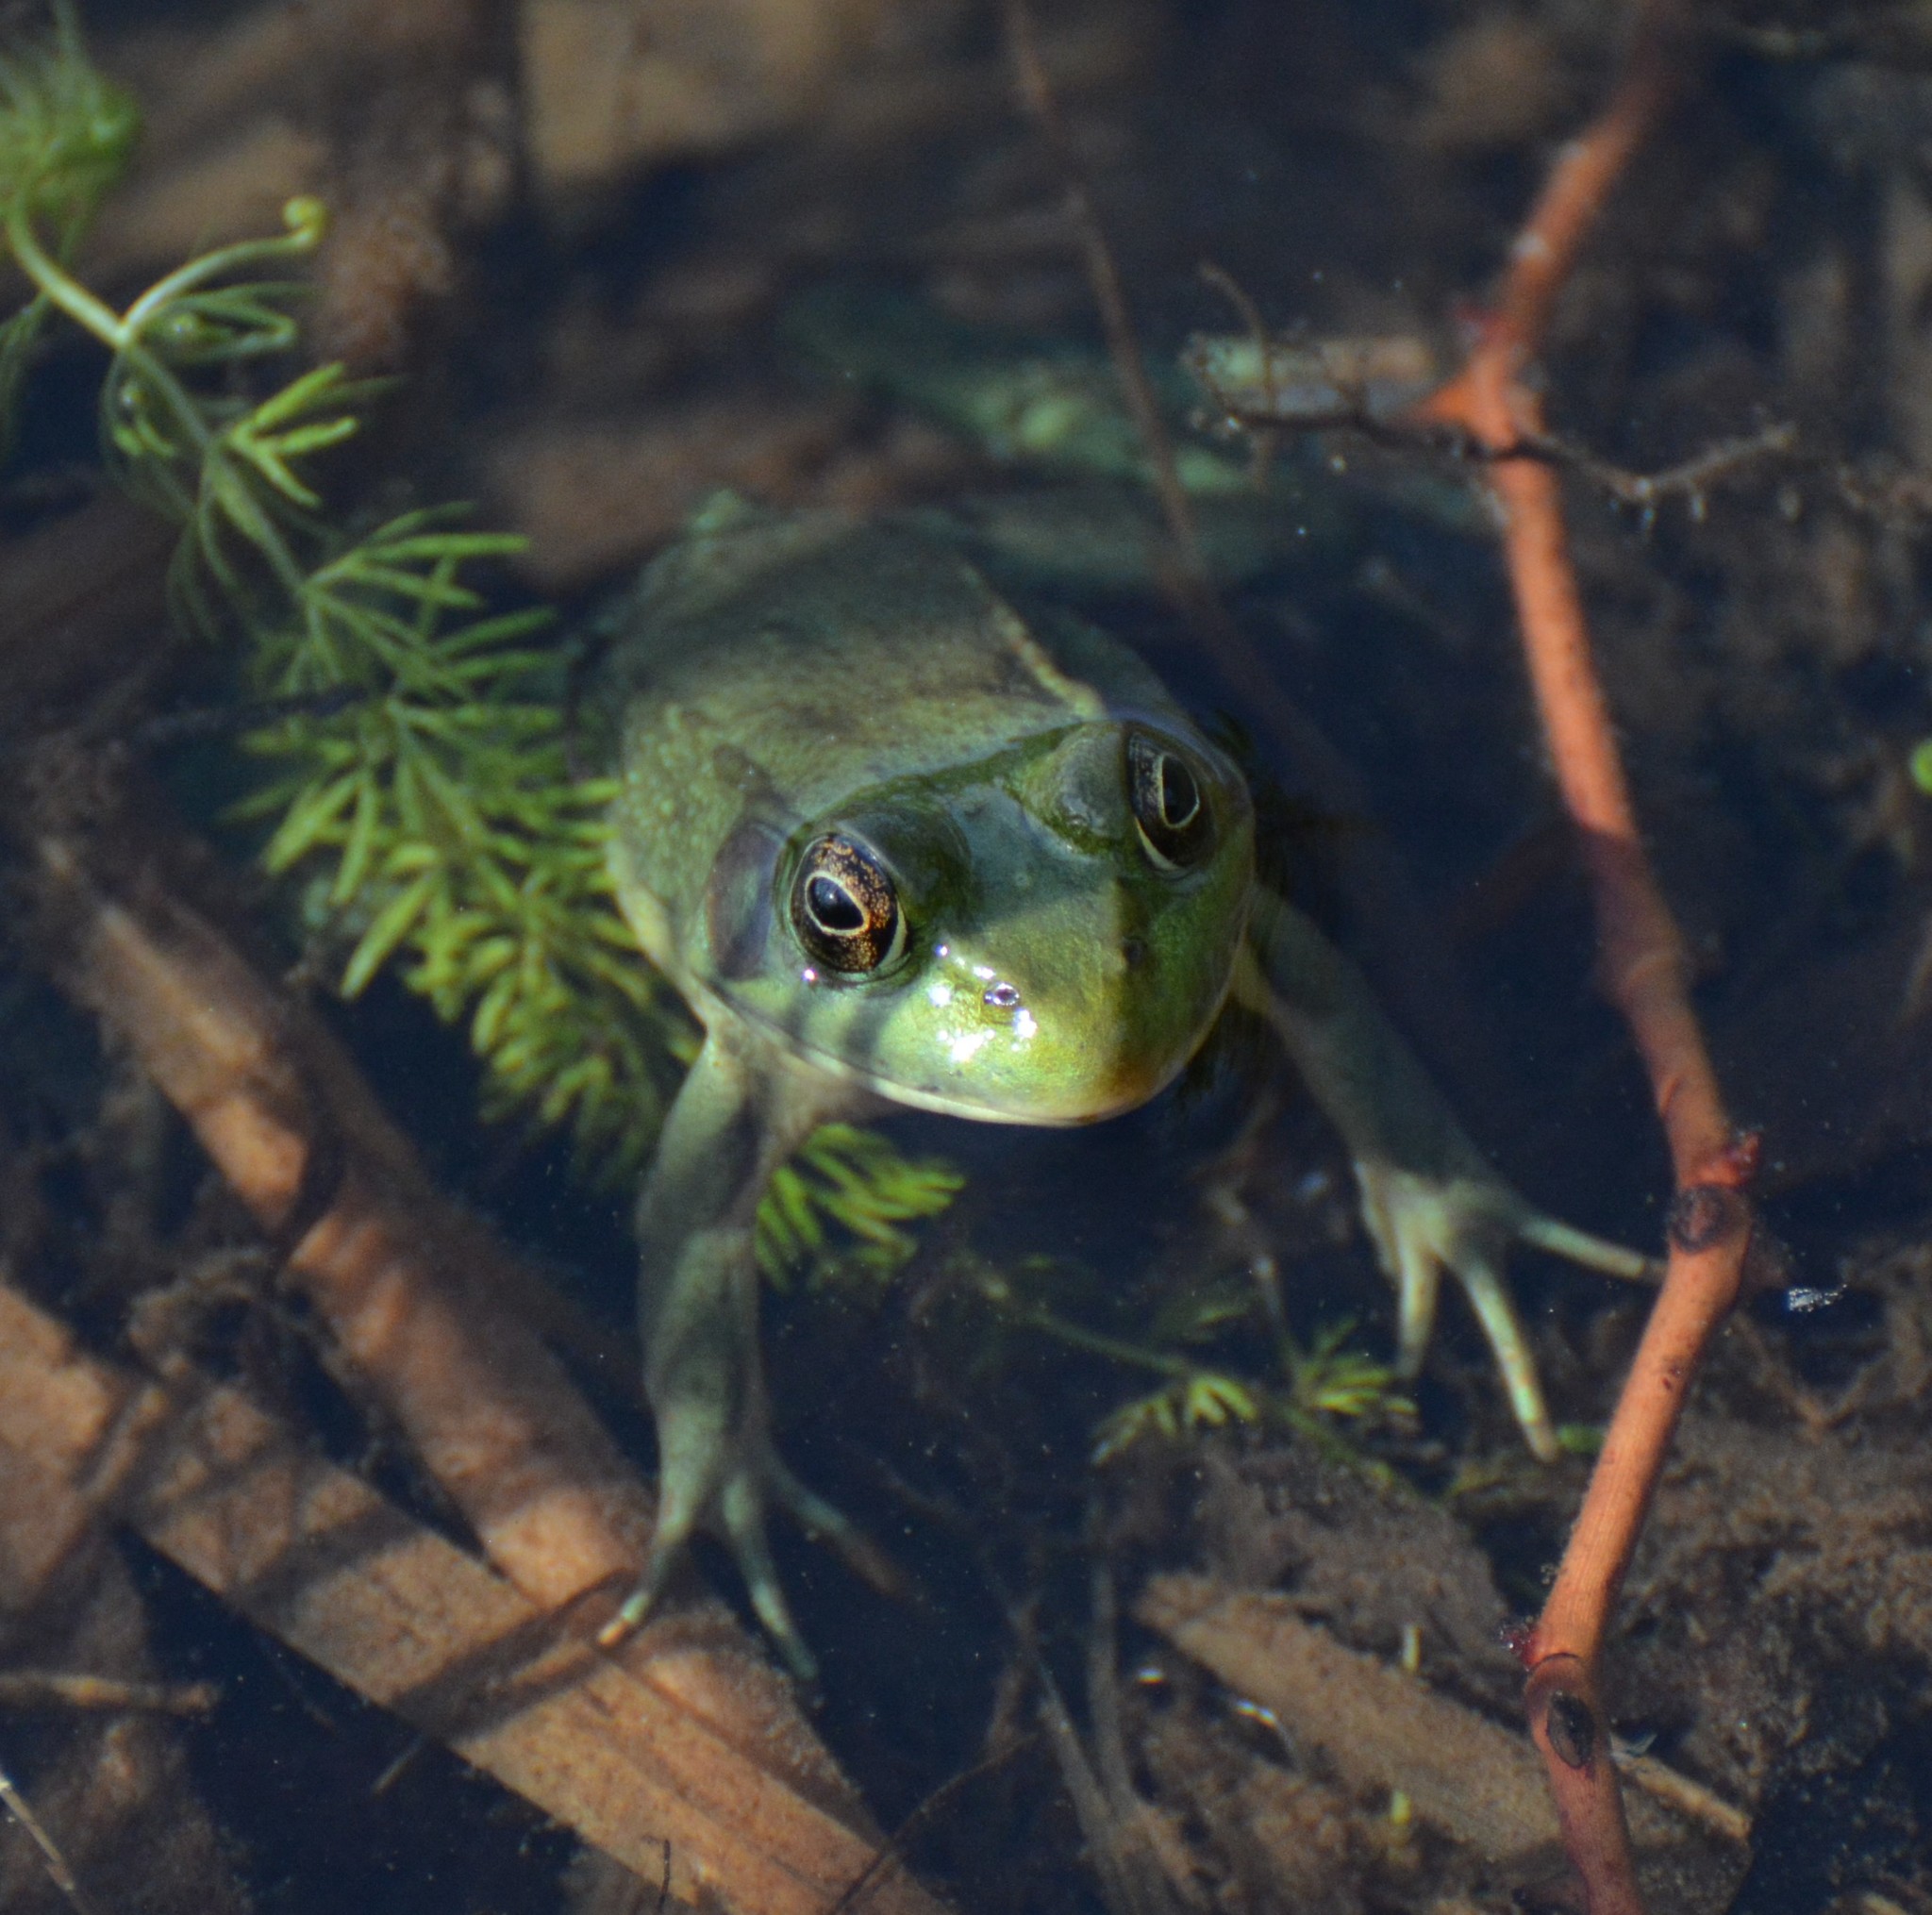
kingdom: Animalia
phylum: Chordata
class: Amphibia
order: Anura
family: Ranidae
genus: Lithobates
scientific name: Lithobates clamitans
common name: Green frog
